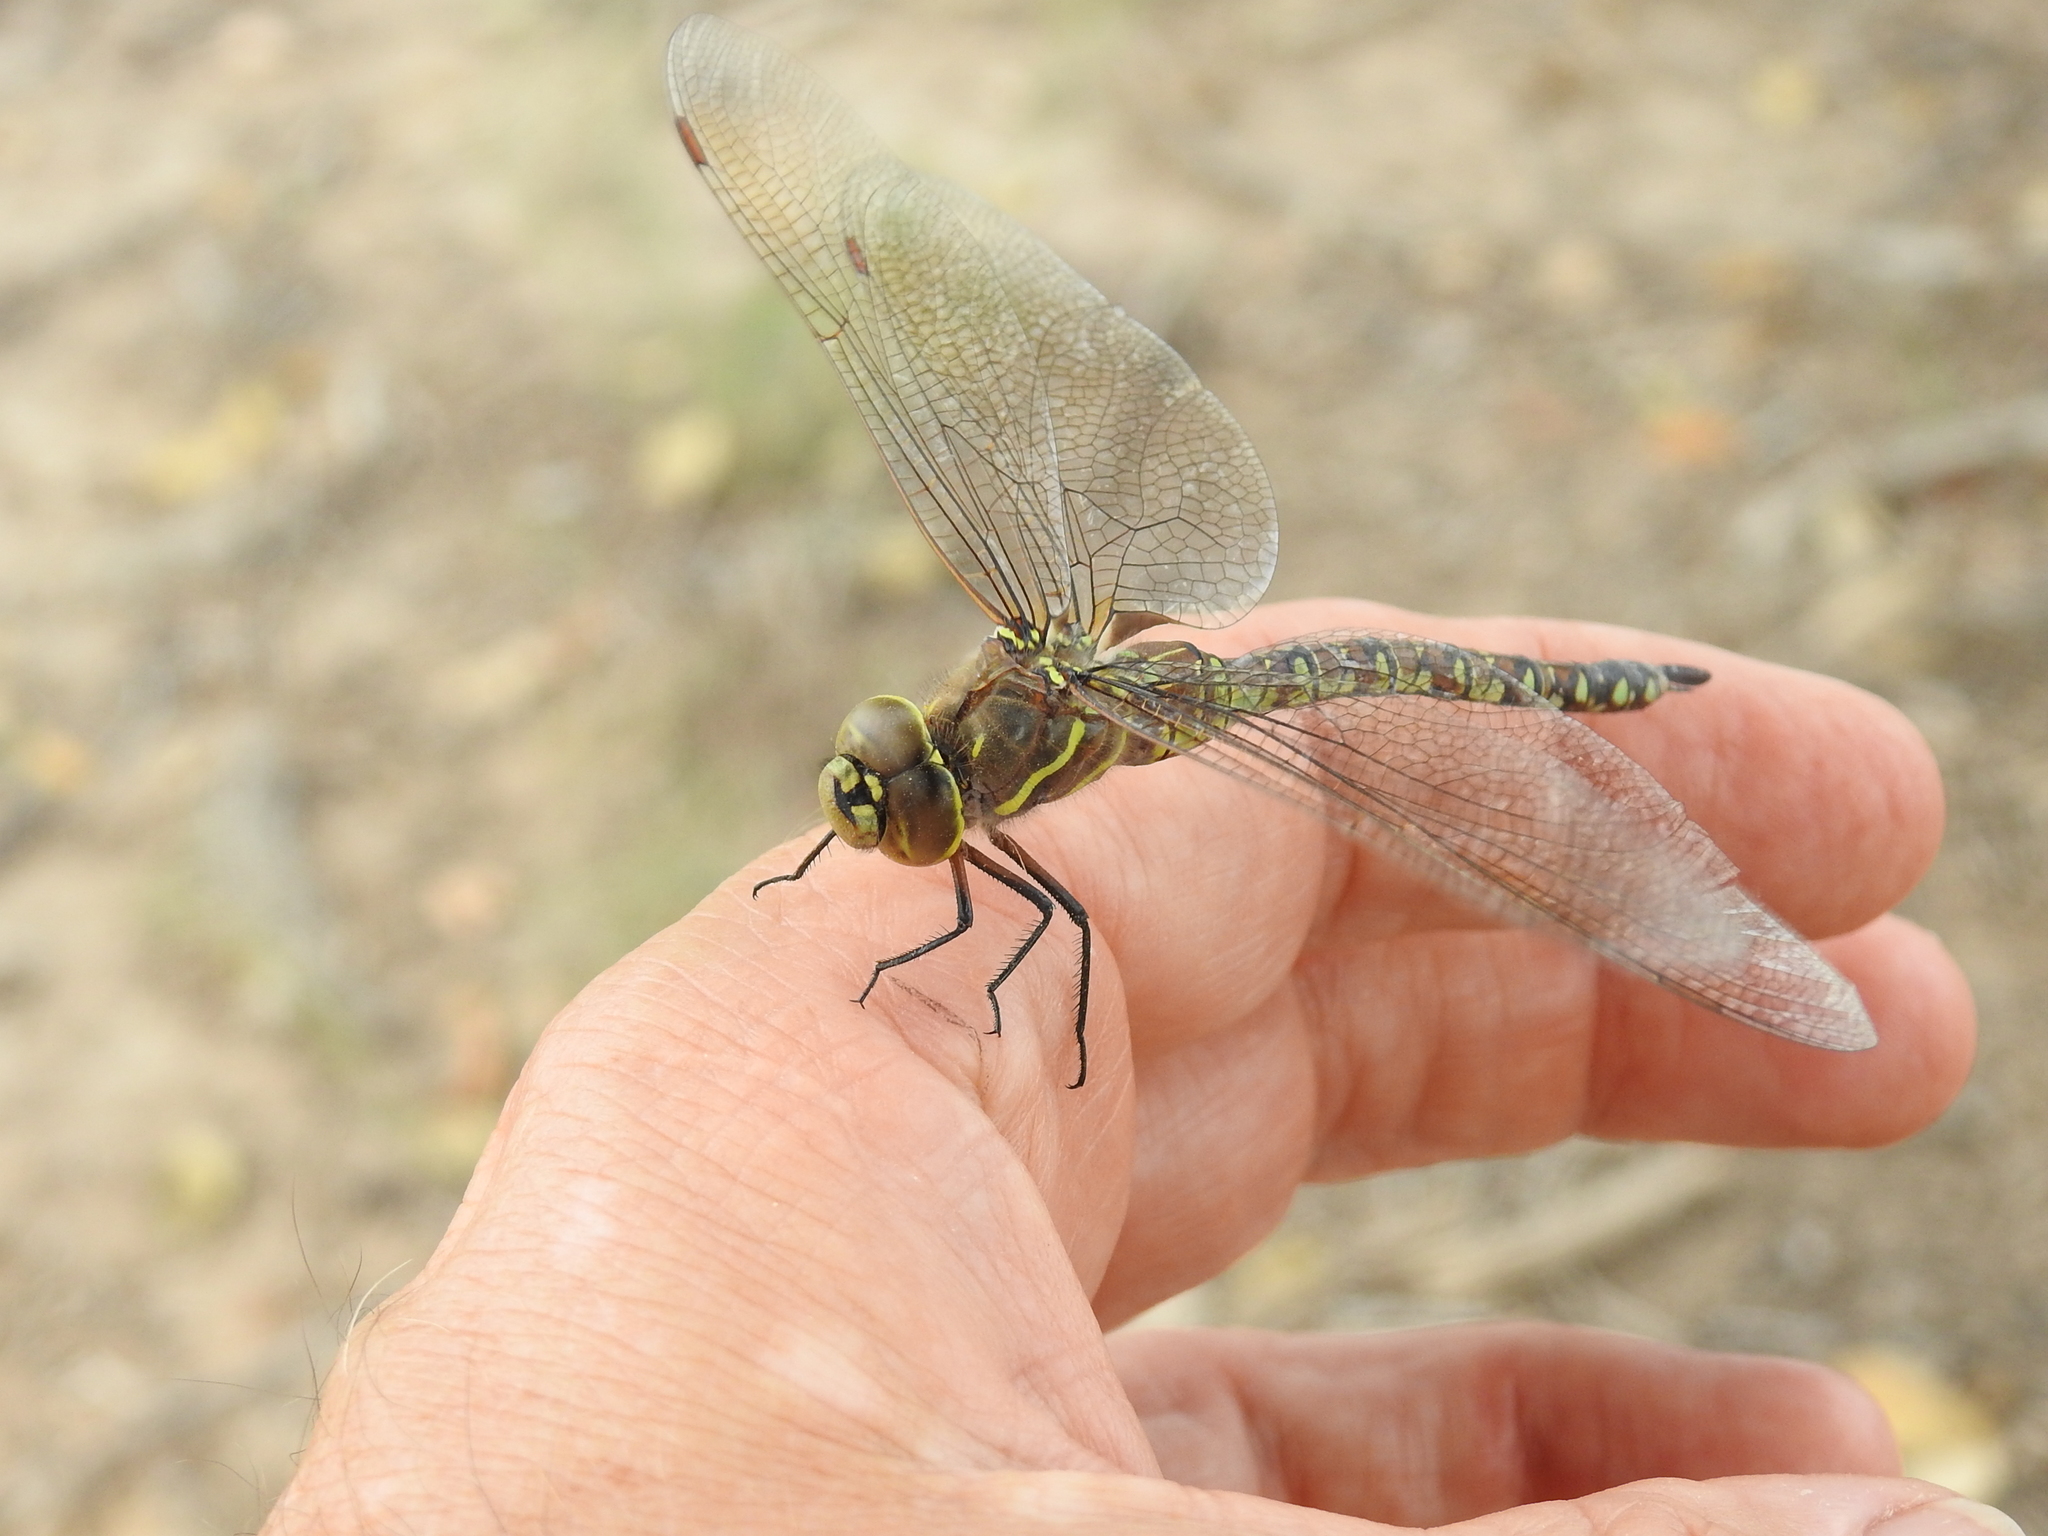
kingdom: Animalia
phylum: Arthropoda
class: Insecta
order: Odonata
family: Aeshnidae
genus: Rhionaeschna
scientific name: Rhionaeschna multicolor
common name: Blue-eyed darner
